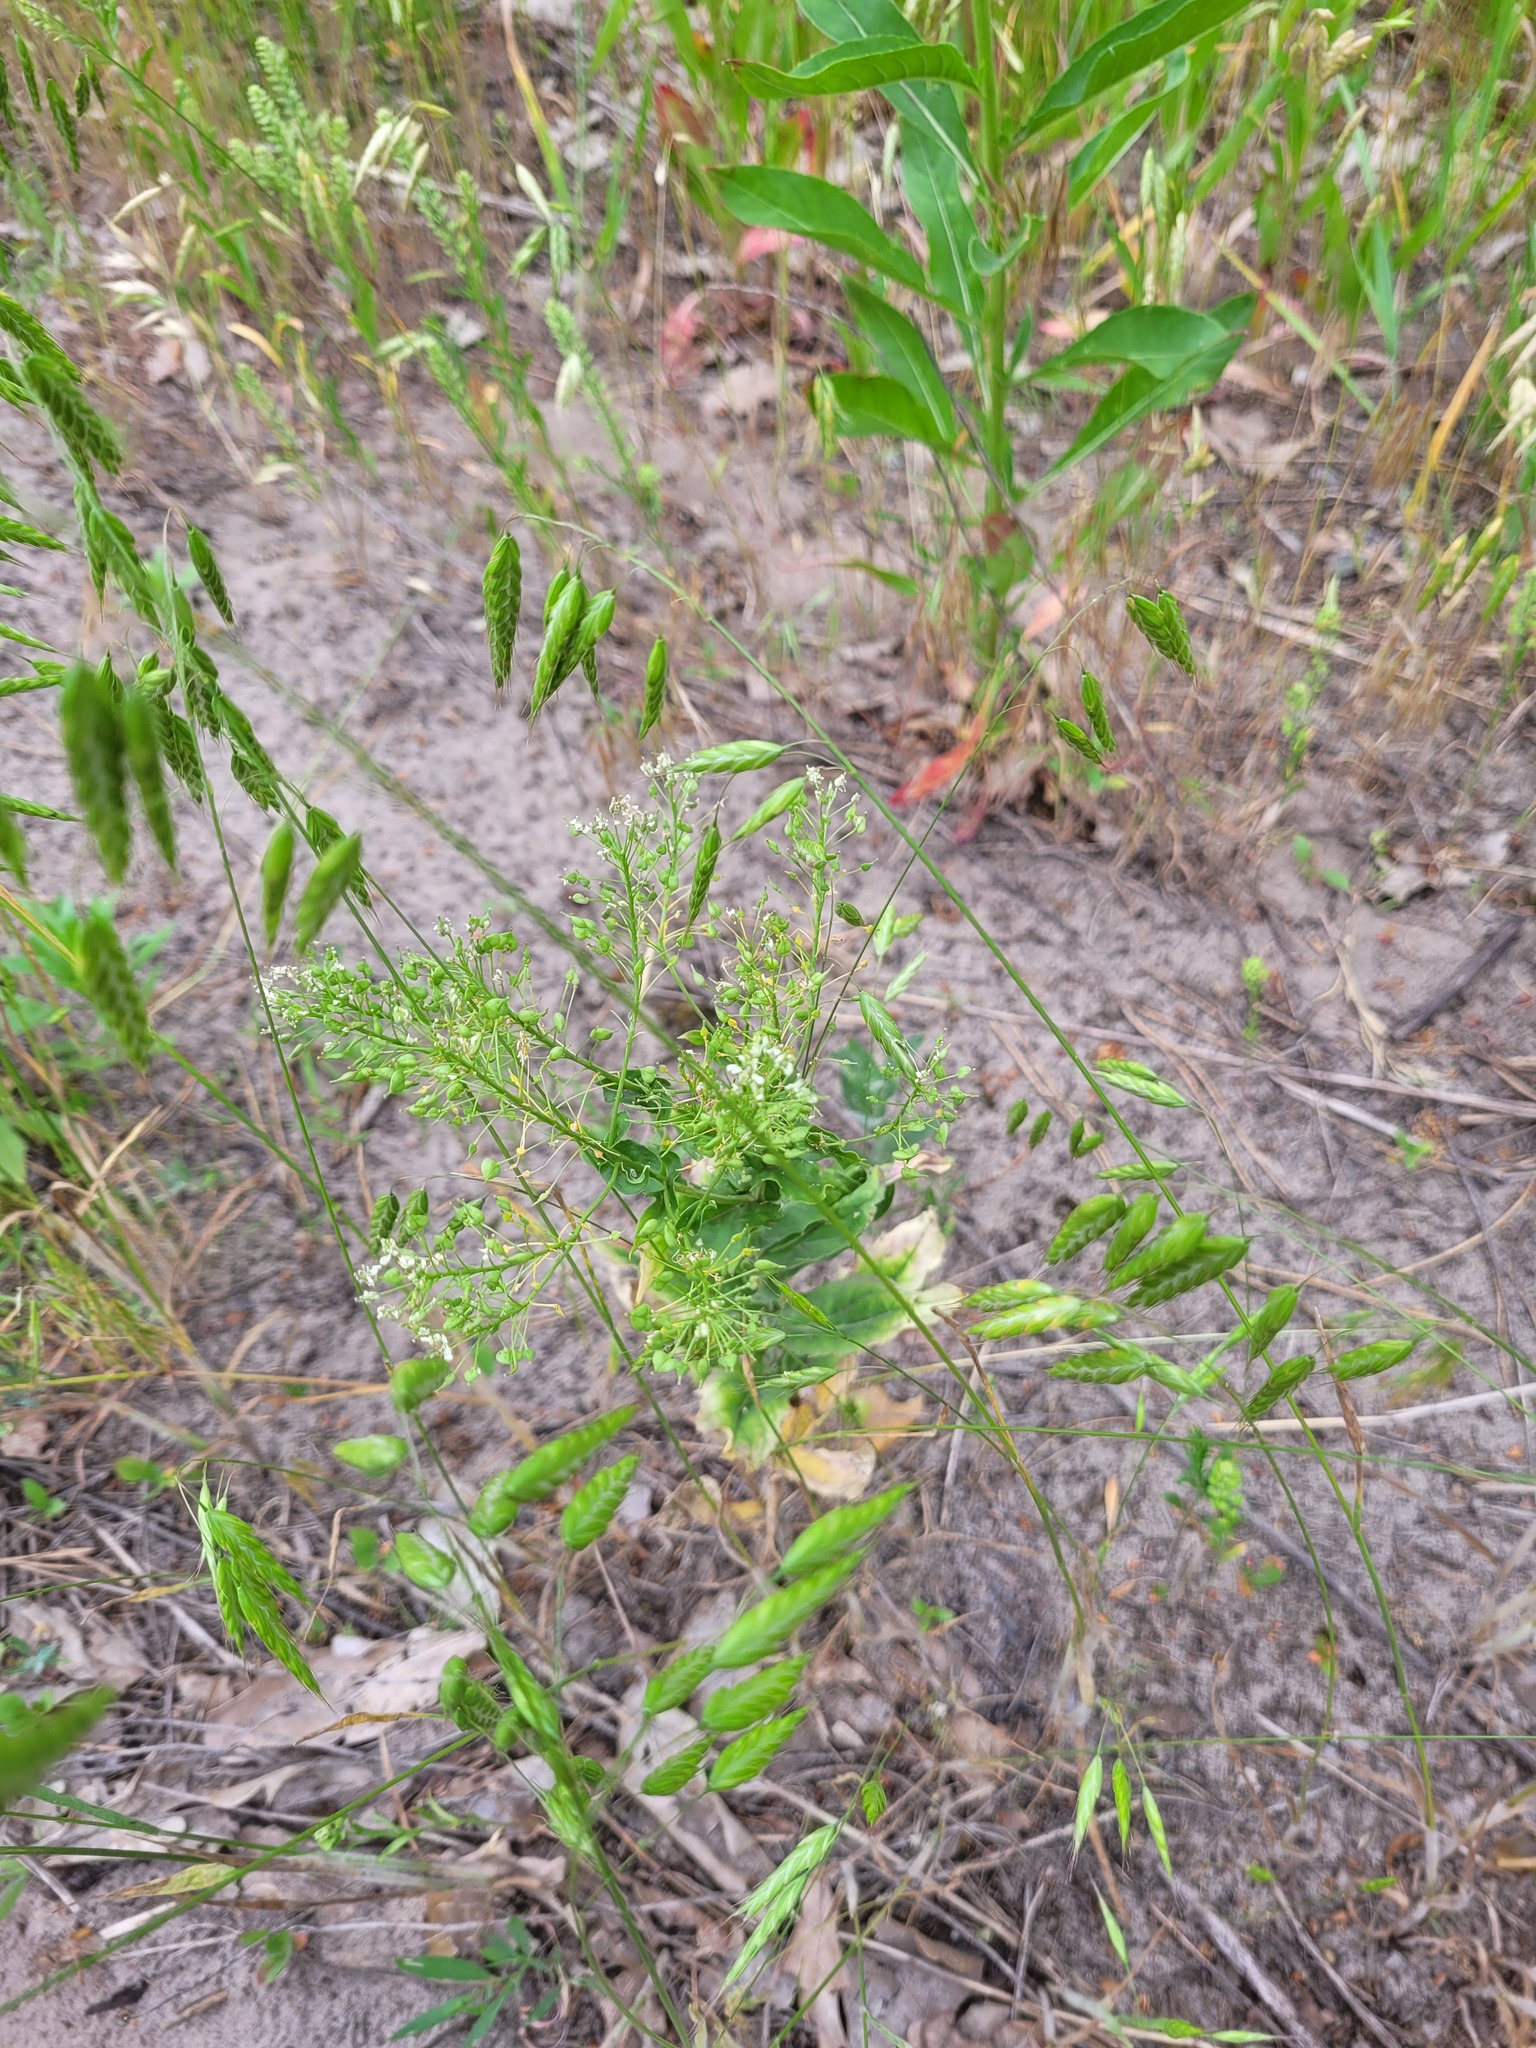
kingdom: Plantae
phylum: Tracheophyta
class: Magnoliopsida
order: Brassicales
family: Brassicaceae
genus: Lepidium
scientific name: Lepidium draba
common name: Hoary cress
